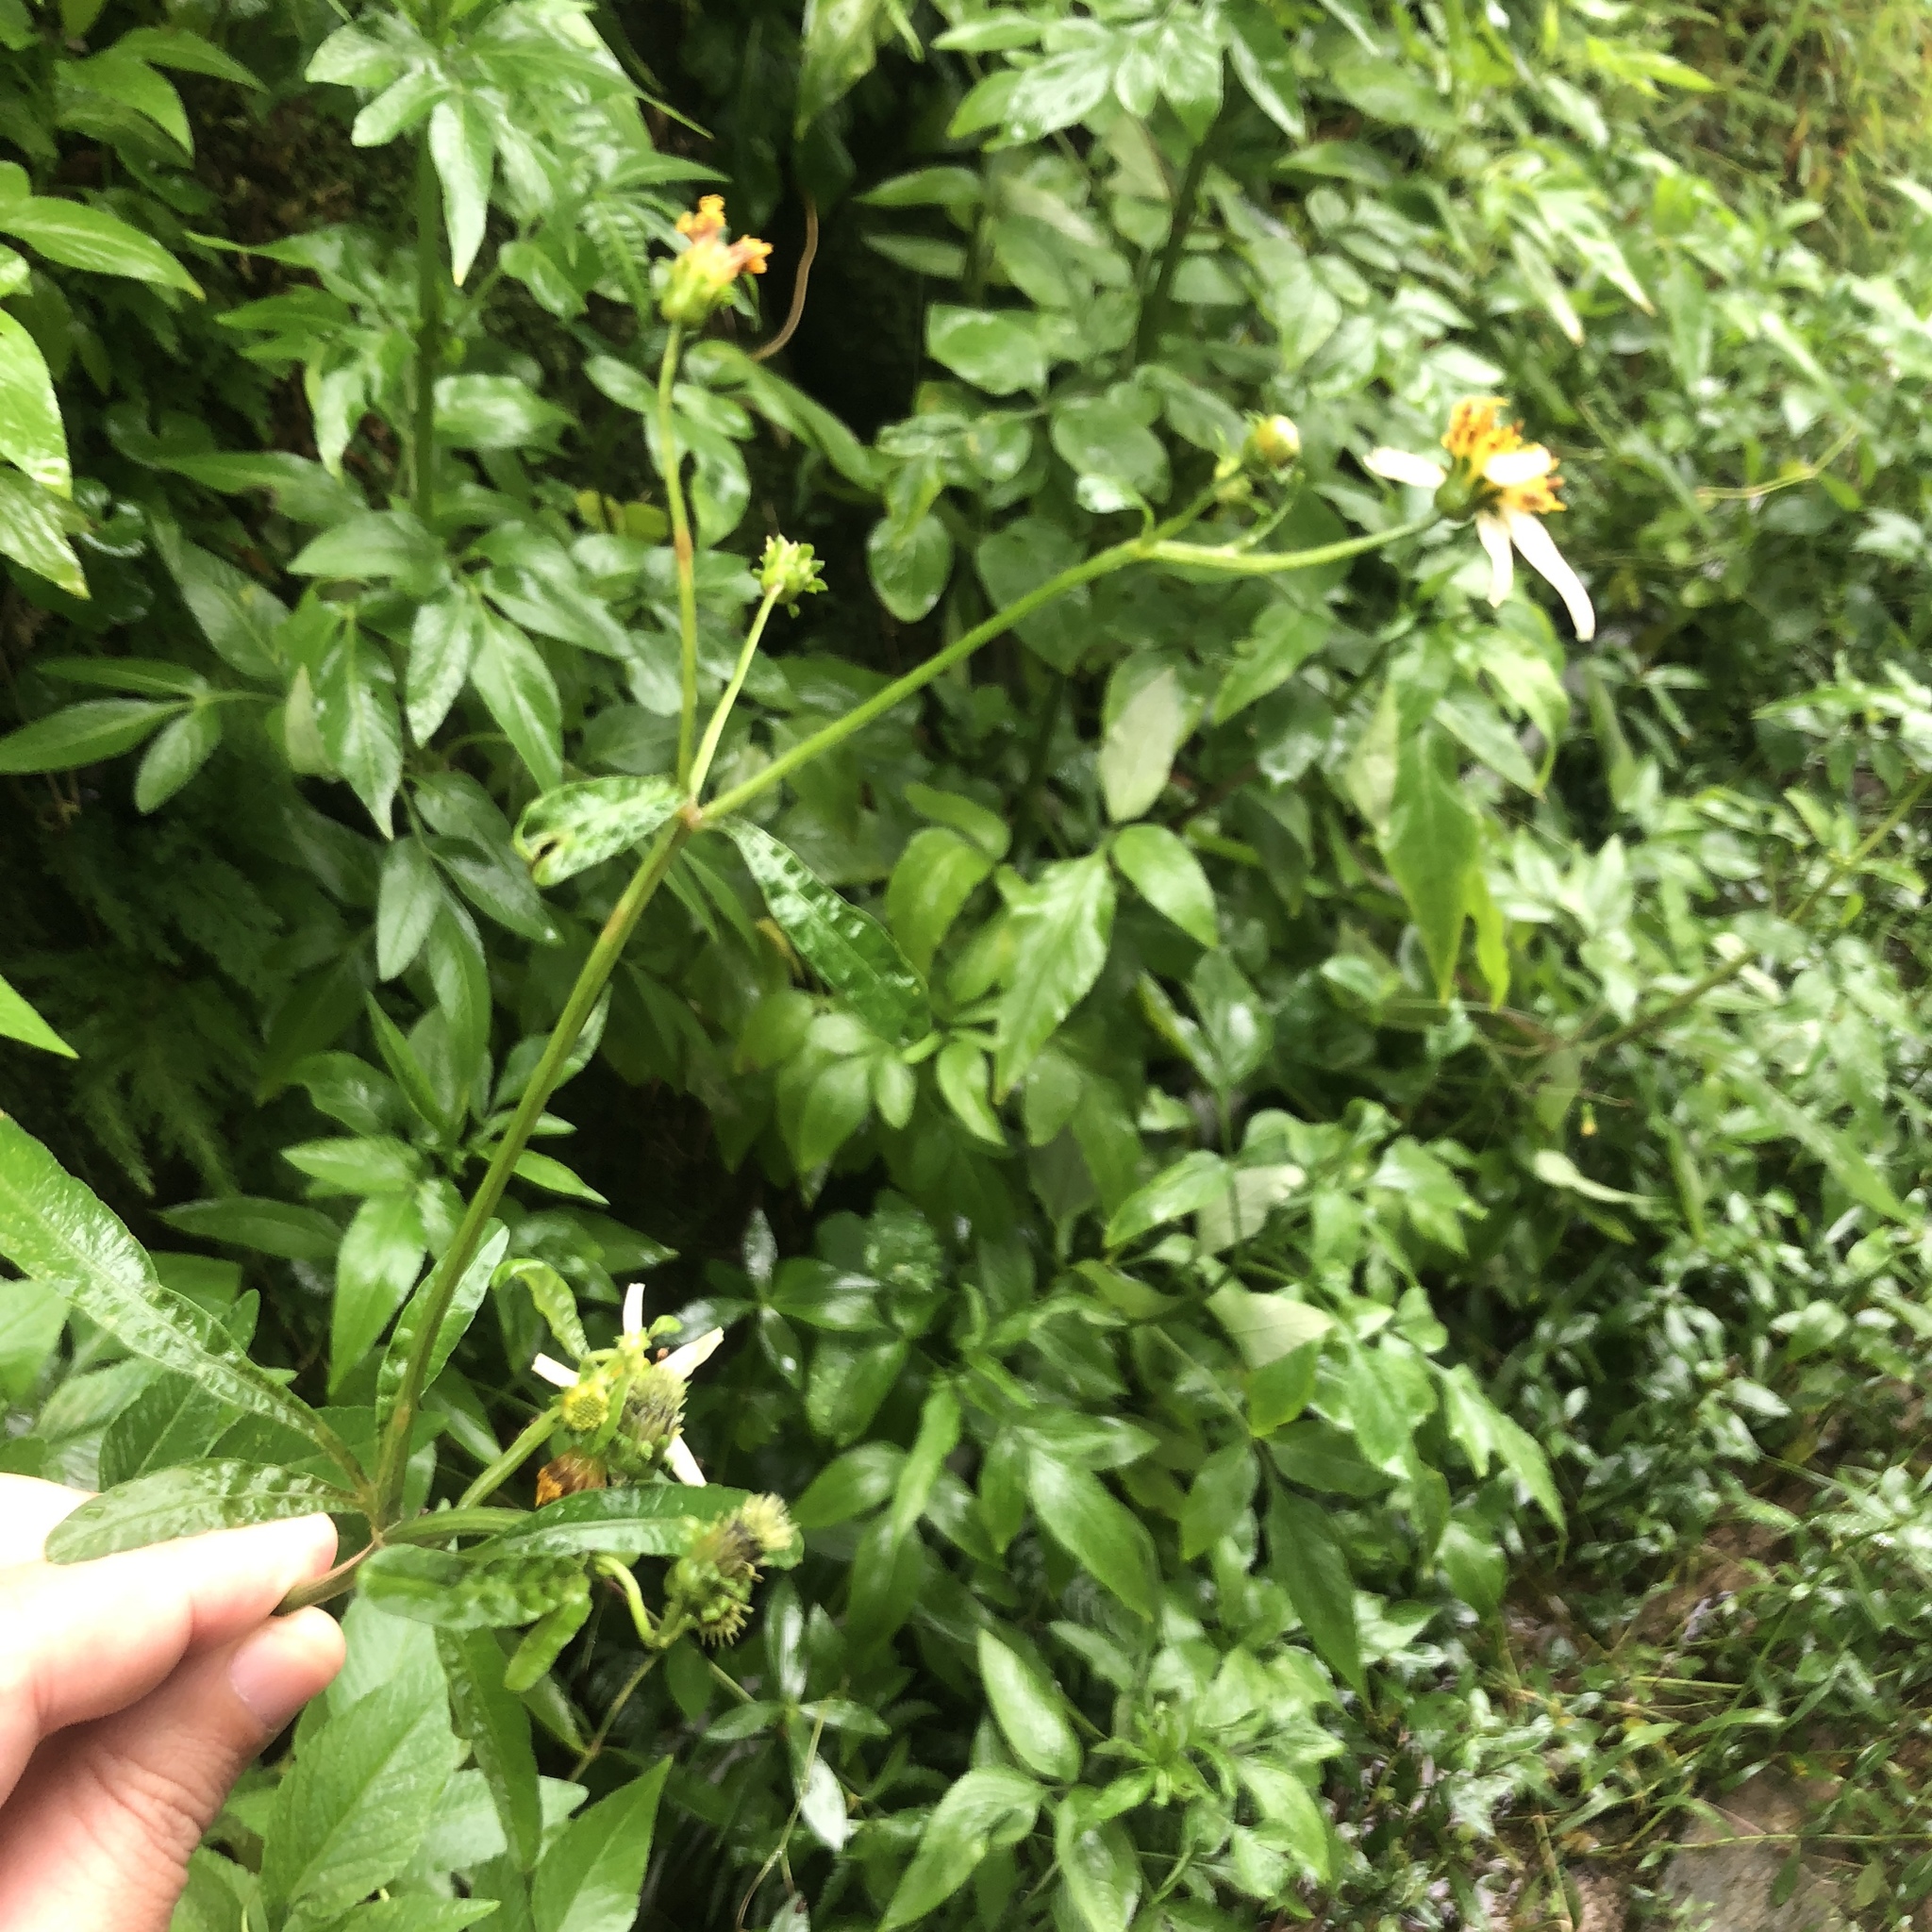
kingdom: Plantae
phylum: Tracheophyta
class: Magnoliopsida
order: Asterales
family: Asteraceae
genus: Bidens
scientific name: Bidens alba
